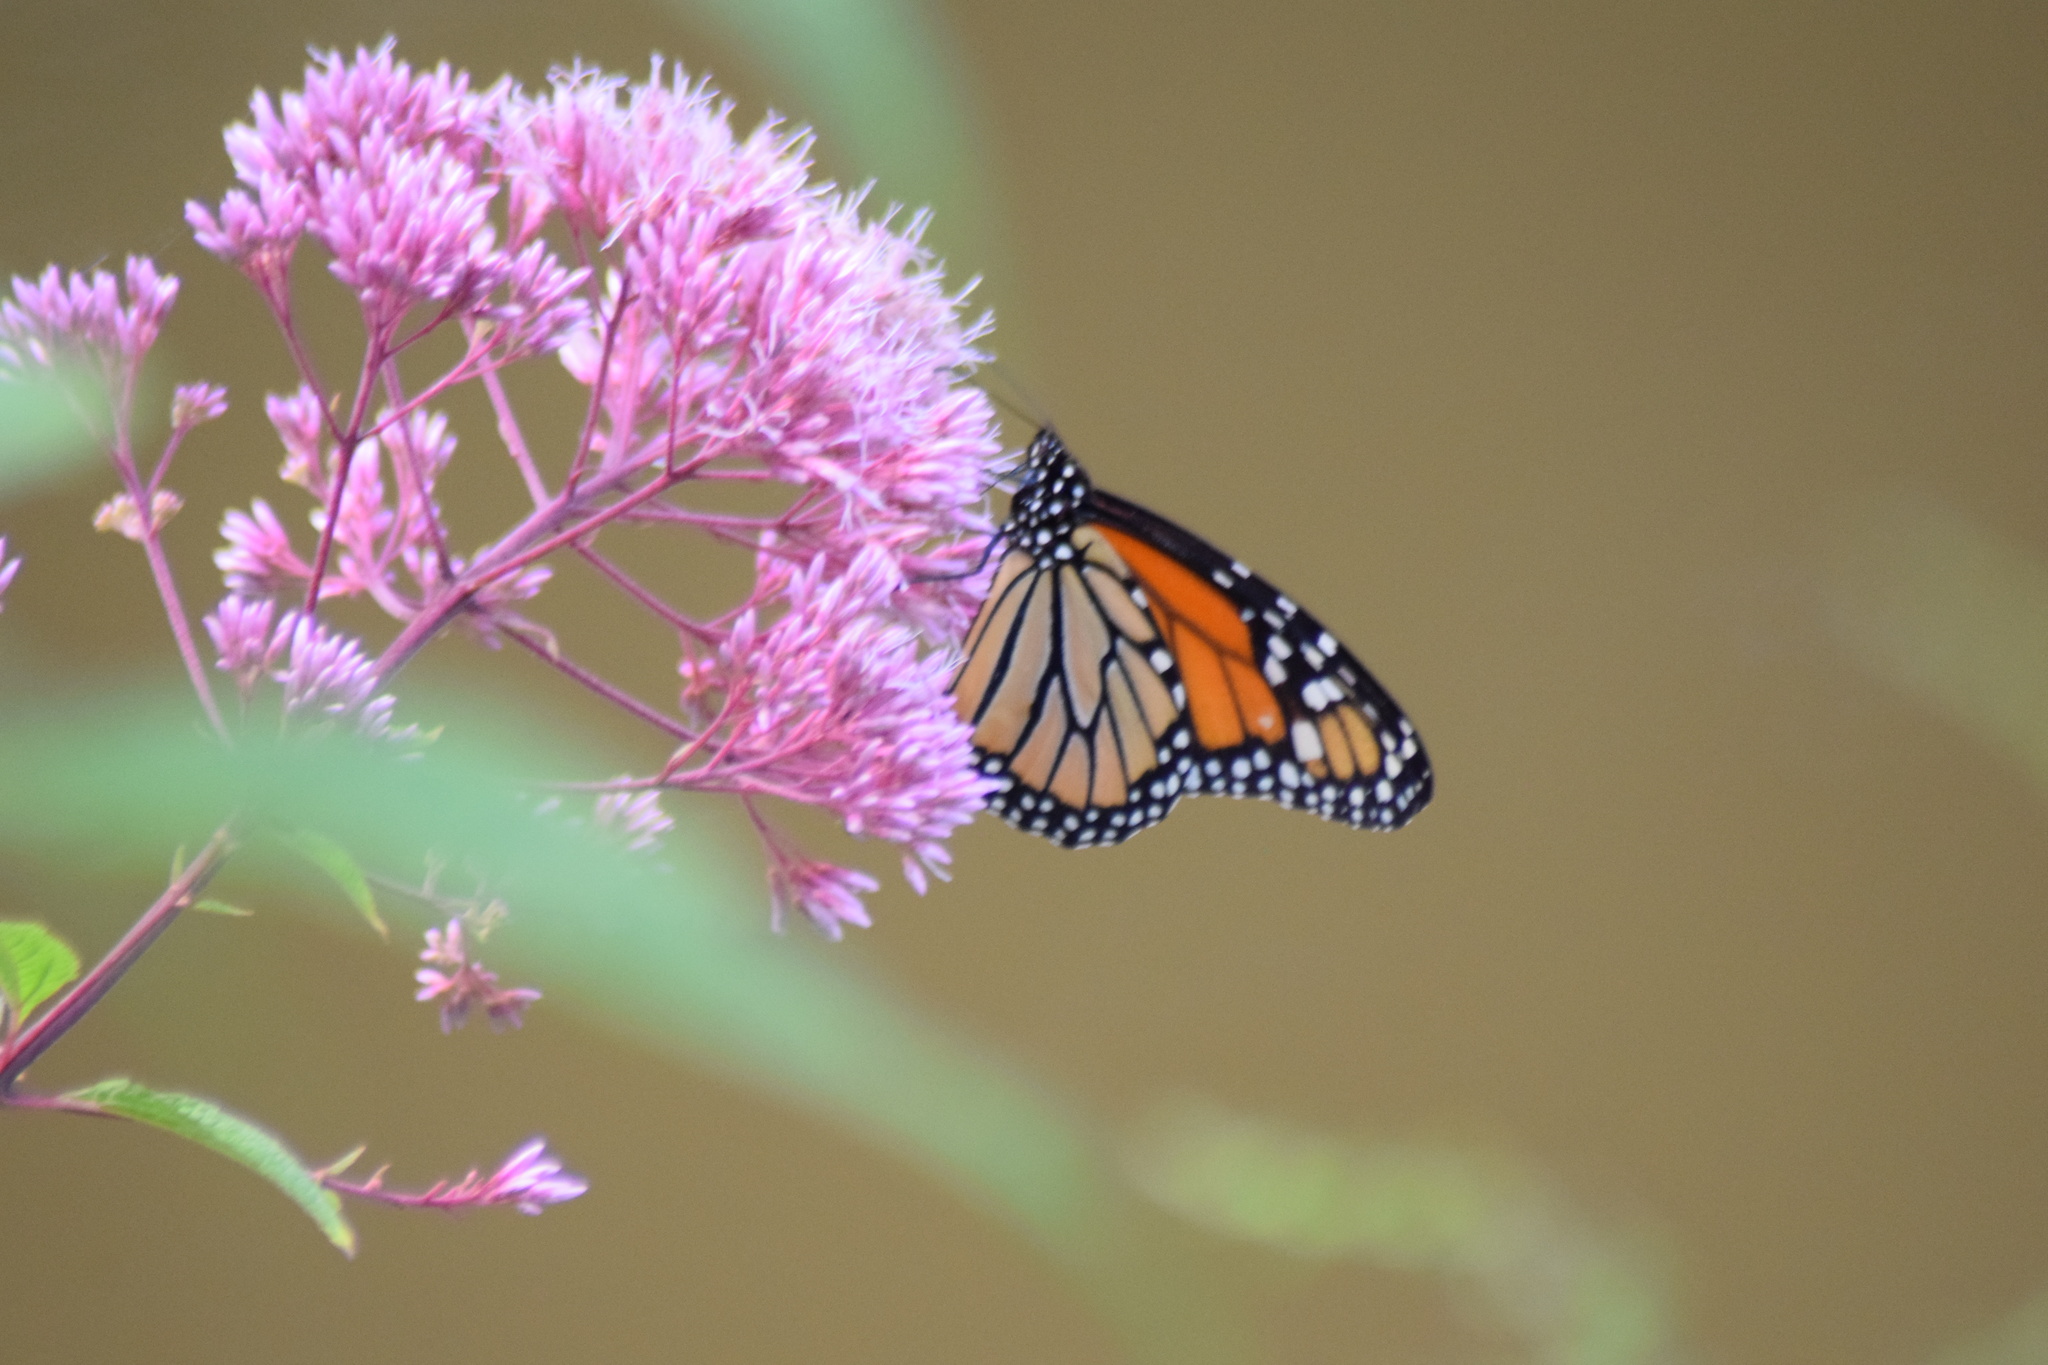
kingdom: Animalia
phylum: Arthropoda
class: Insecta
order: Lepidoptera
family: Nymphalidae
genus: Danaus
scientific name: Danaus plexippus
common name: Monarch
